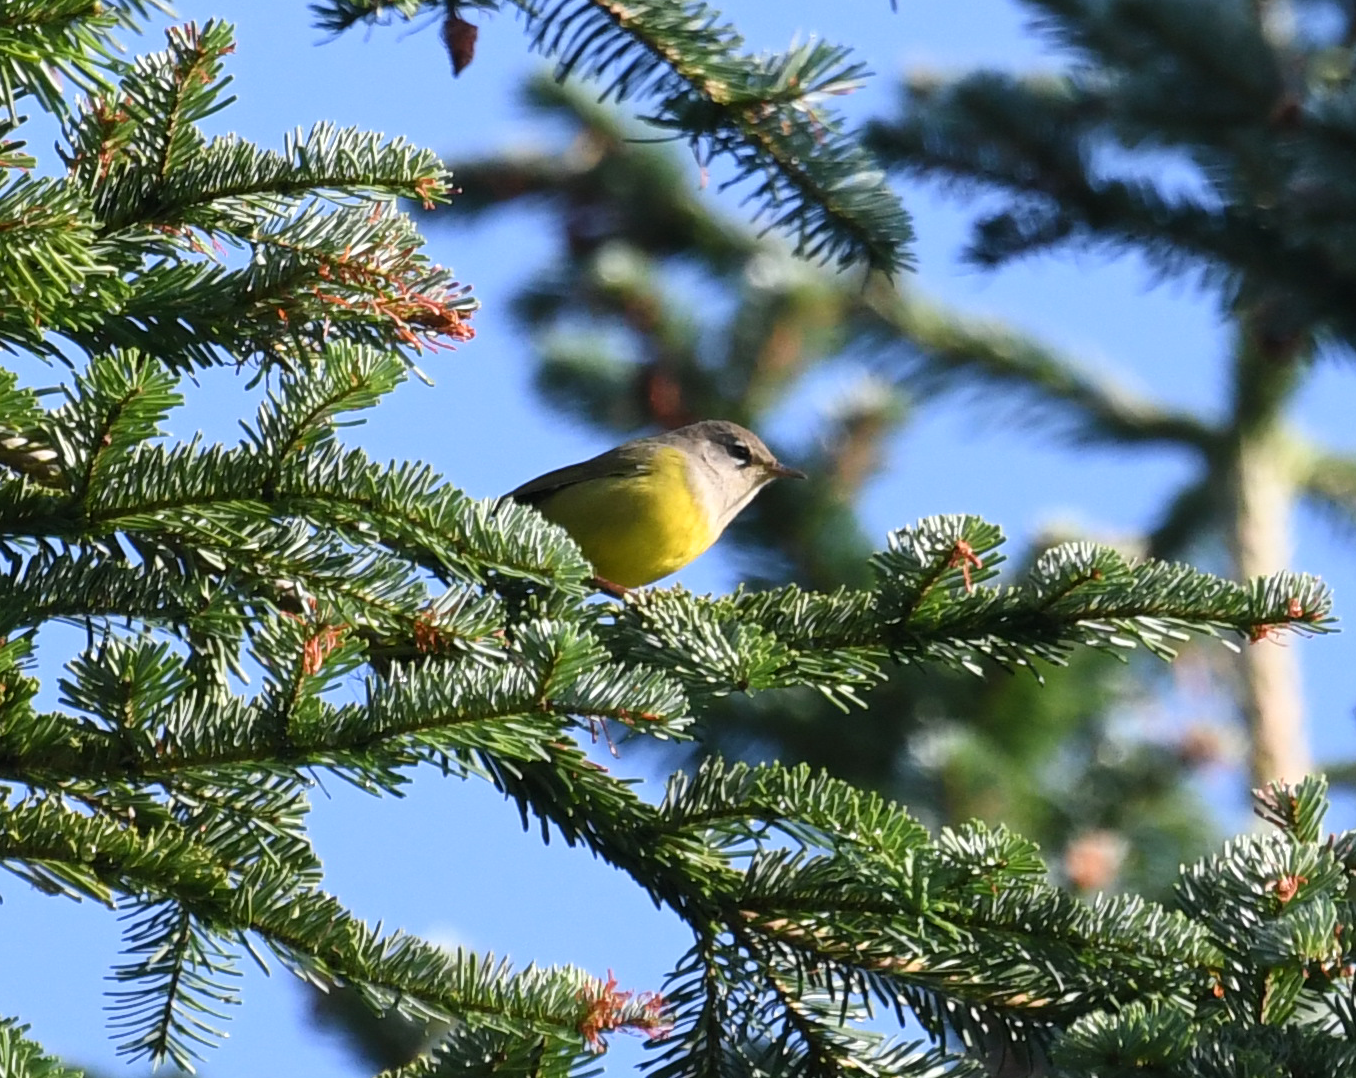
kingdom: Animalia
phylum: Chordata
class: Aves
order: Passeriformes
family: Parulidae
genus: Geothlypis
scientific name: Geothlypis tolmiei
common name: Macgillivray's warbler
